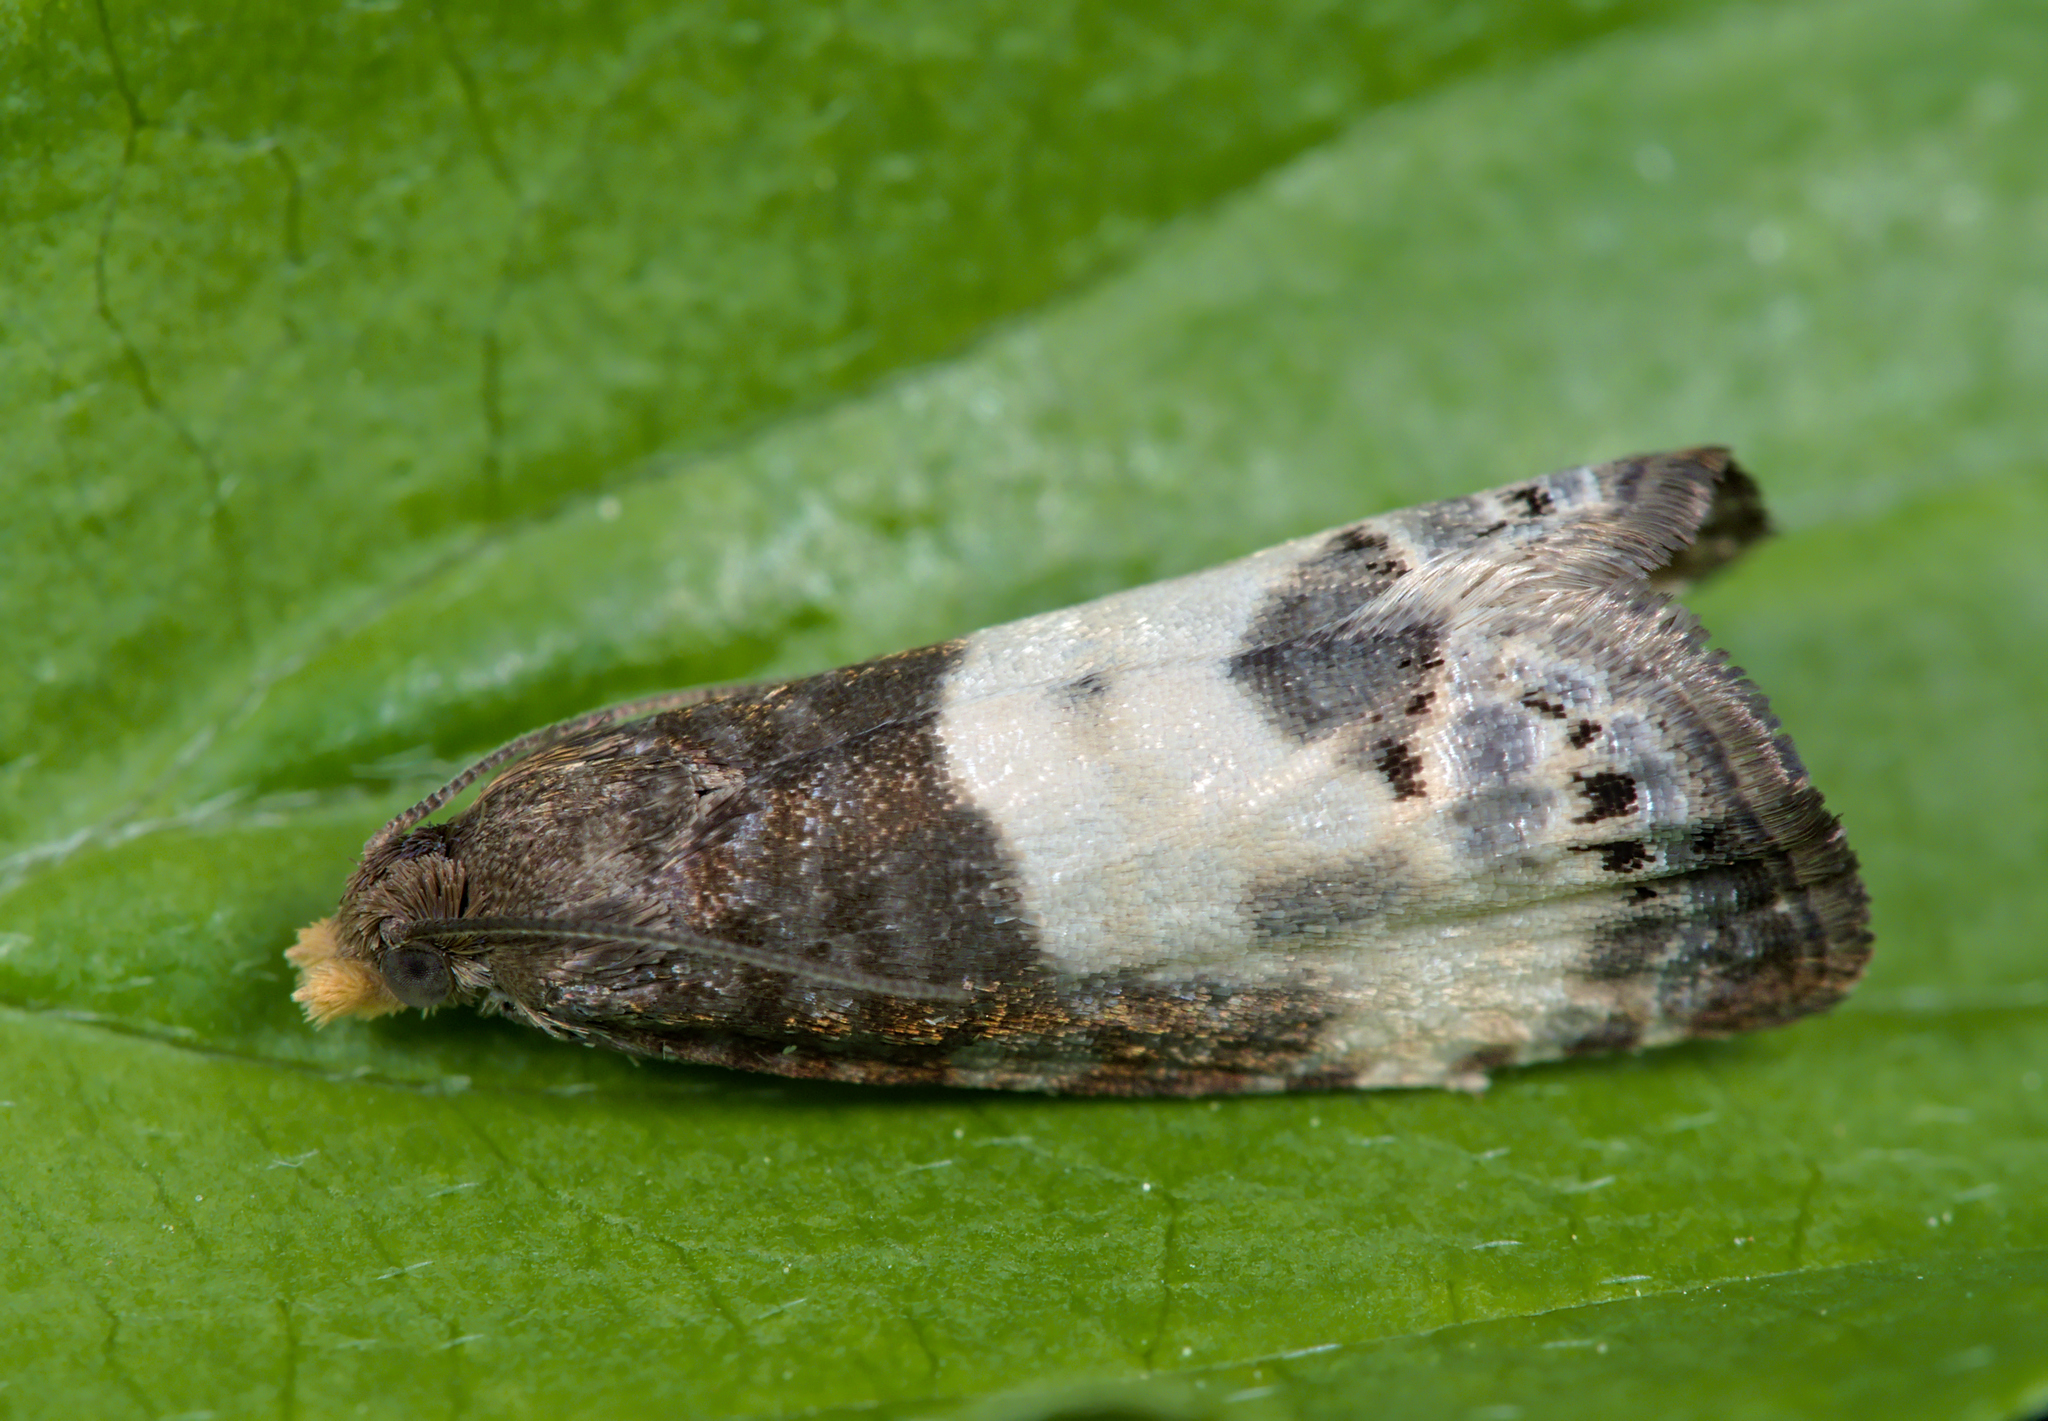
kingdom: Animalia
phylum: Arthropoda
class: Insecta
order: Lepidoptera
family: Tortricidae
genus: Notocelia
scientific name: Notocelia cynosbatella
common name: Yellow-faced bell moth
